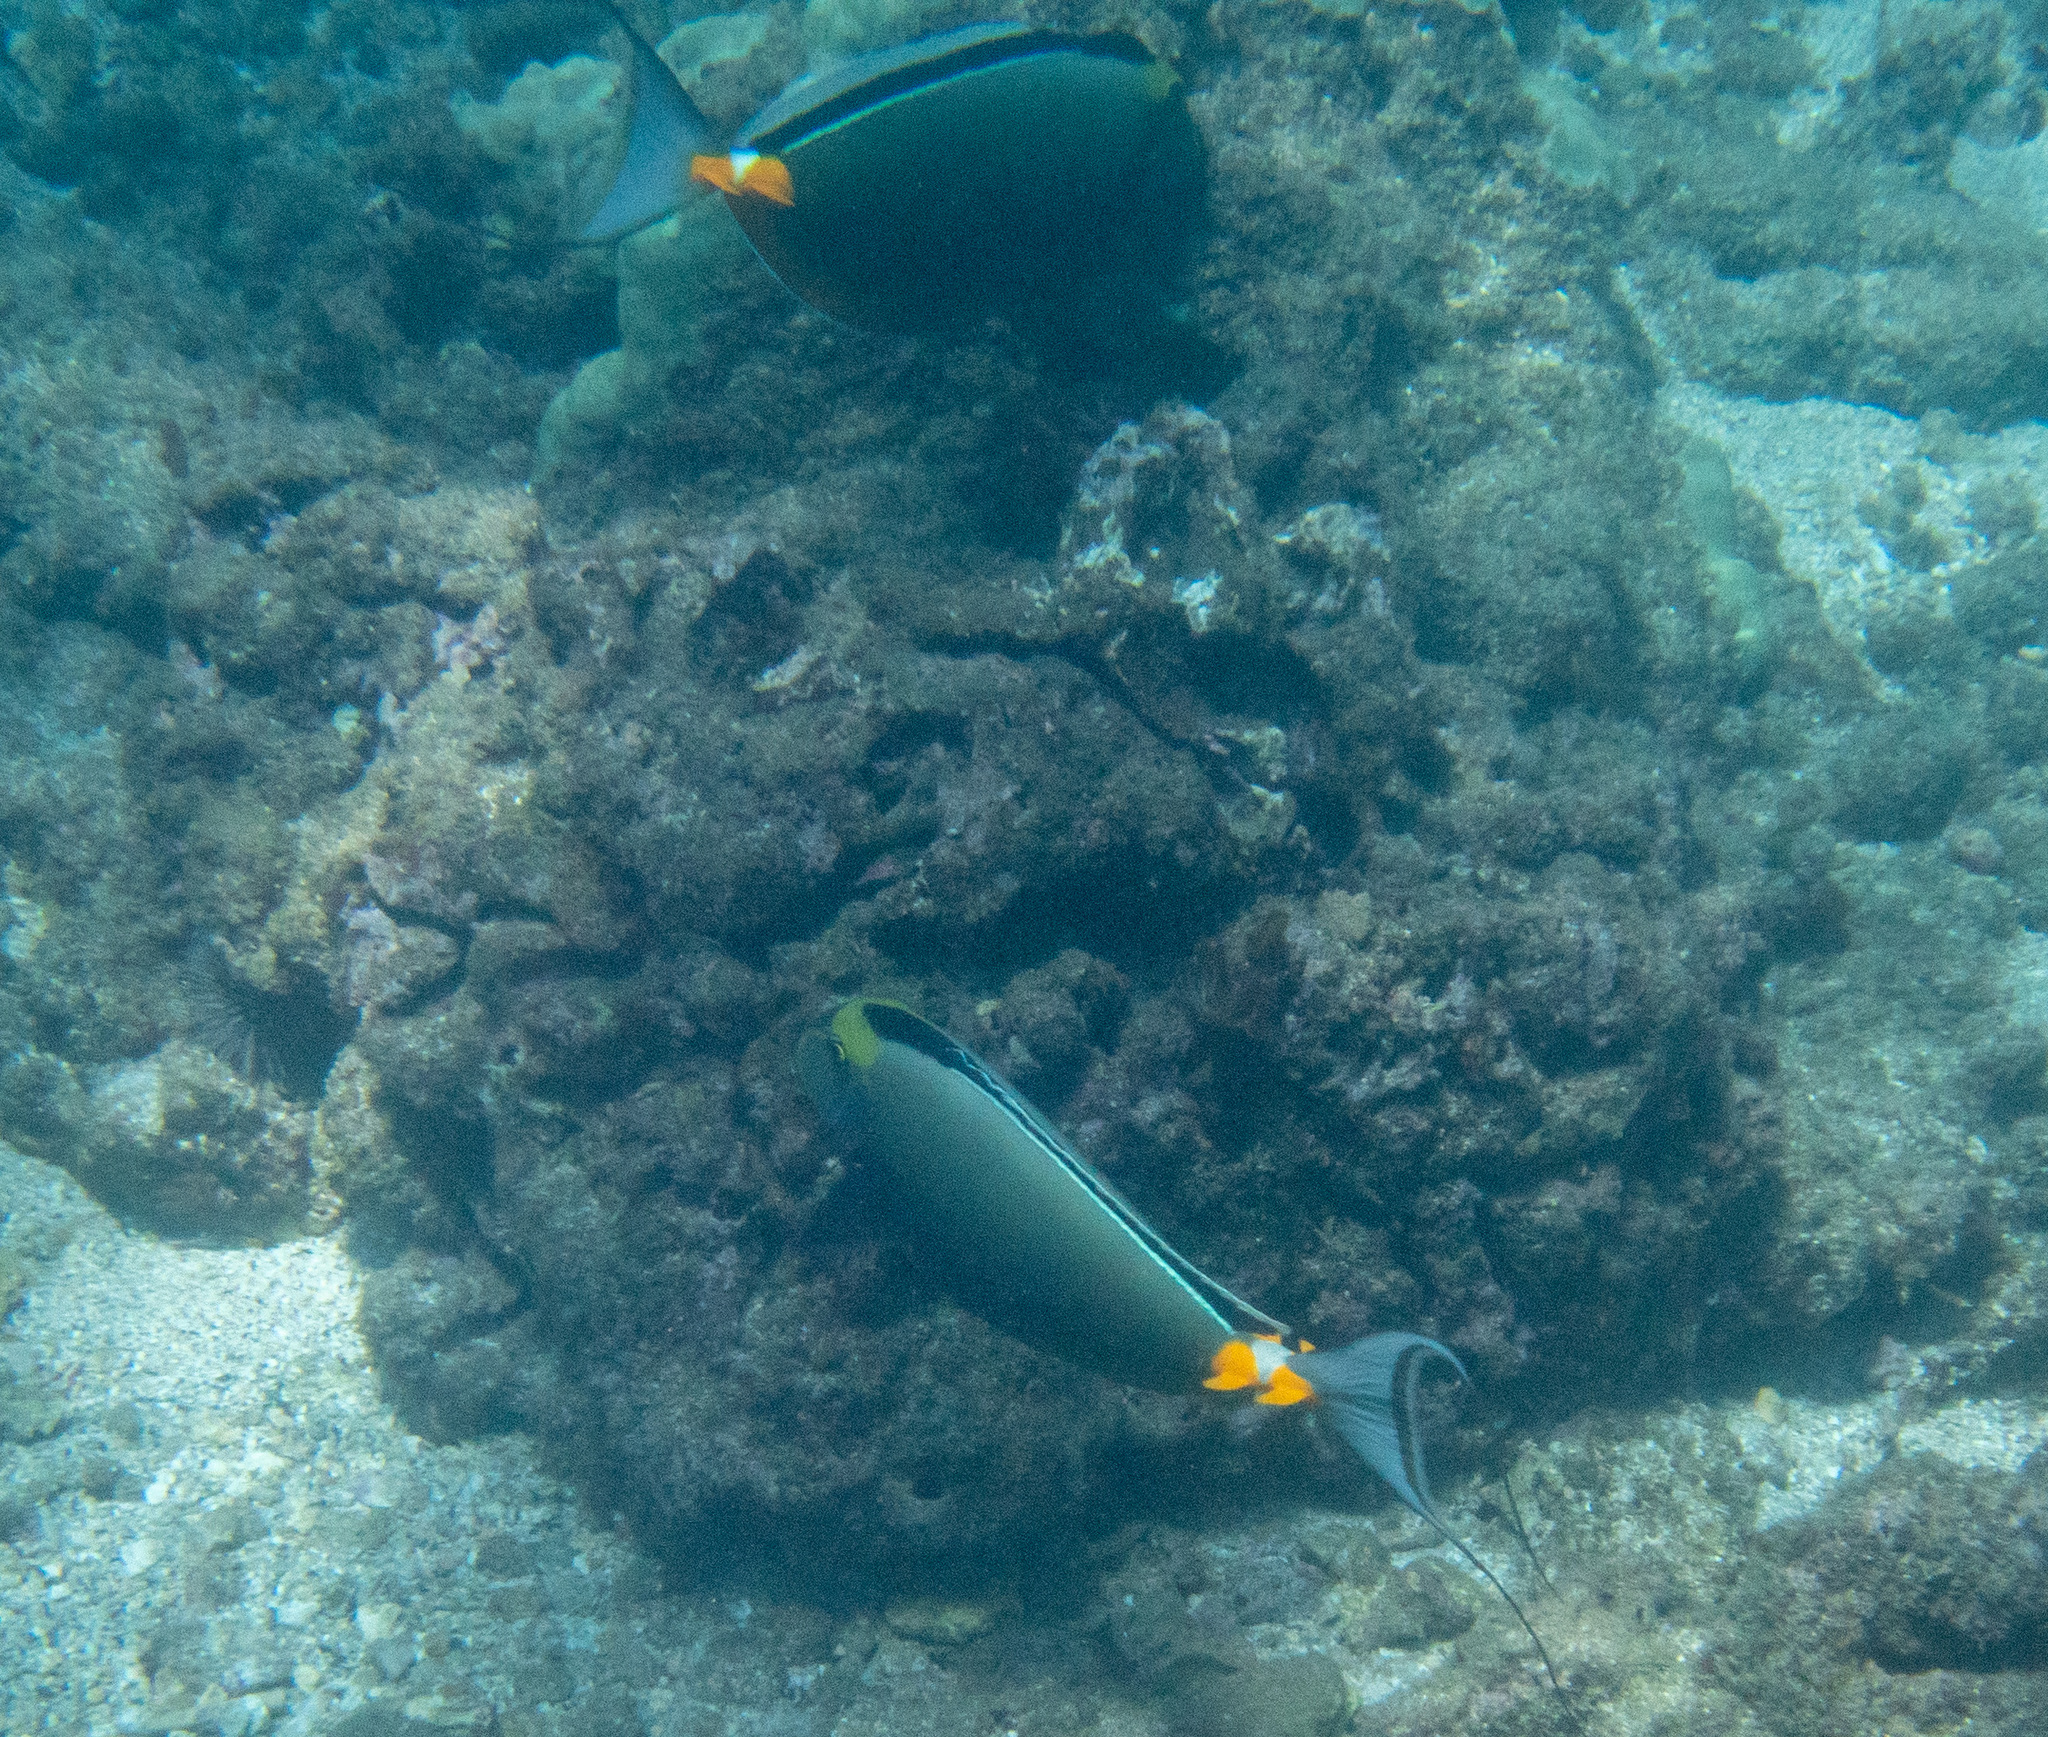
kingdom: Animalia
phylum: Chordata
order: Perciformes
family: Acanthuridae
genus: Naso
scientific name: Naso lituratus
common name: Orangespine unicornfish
